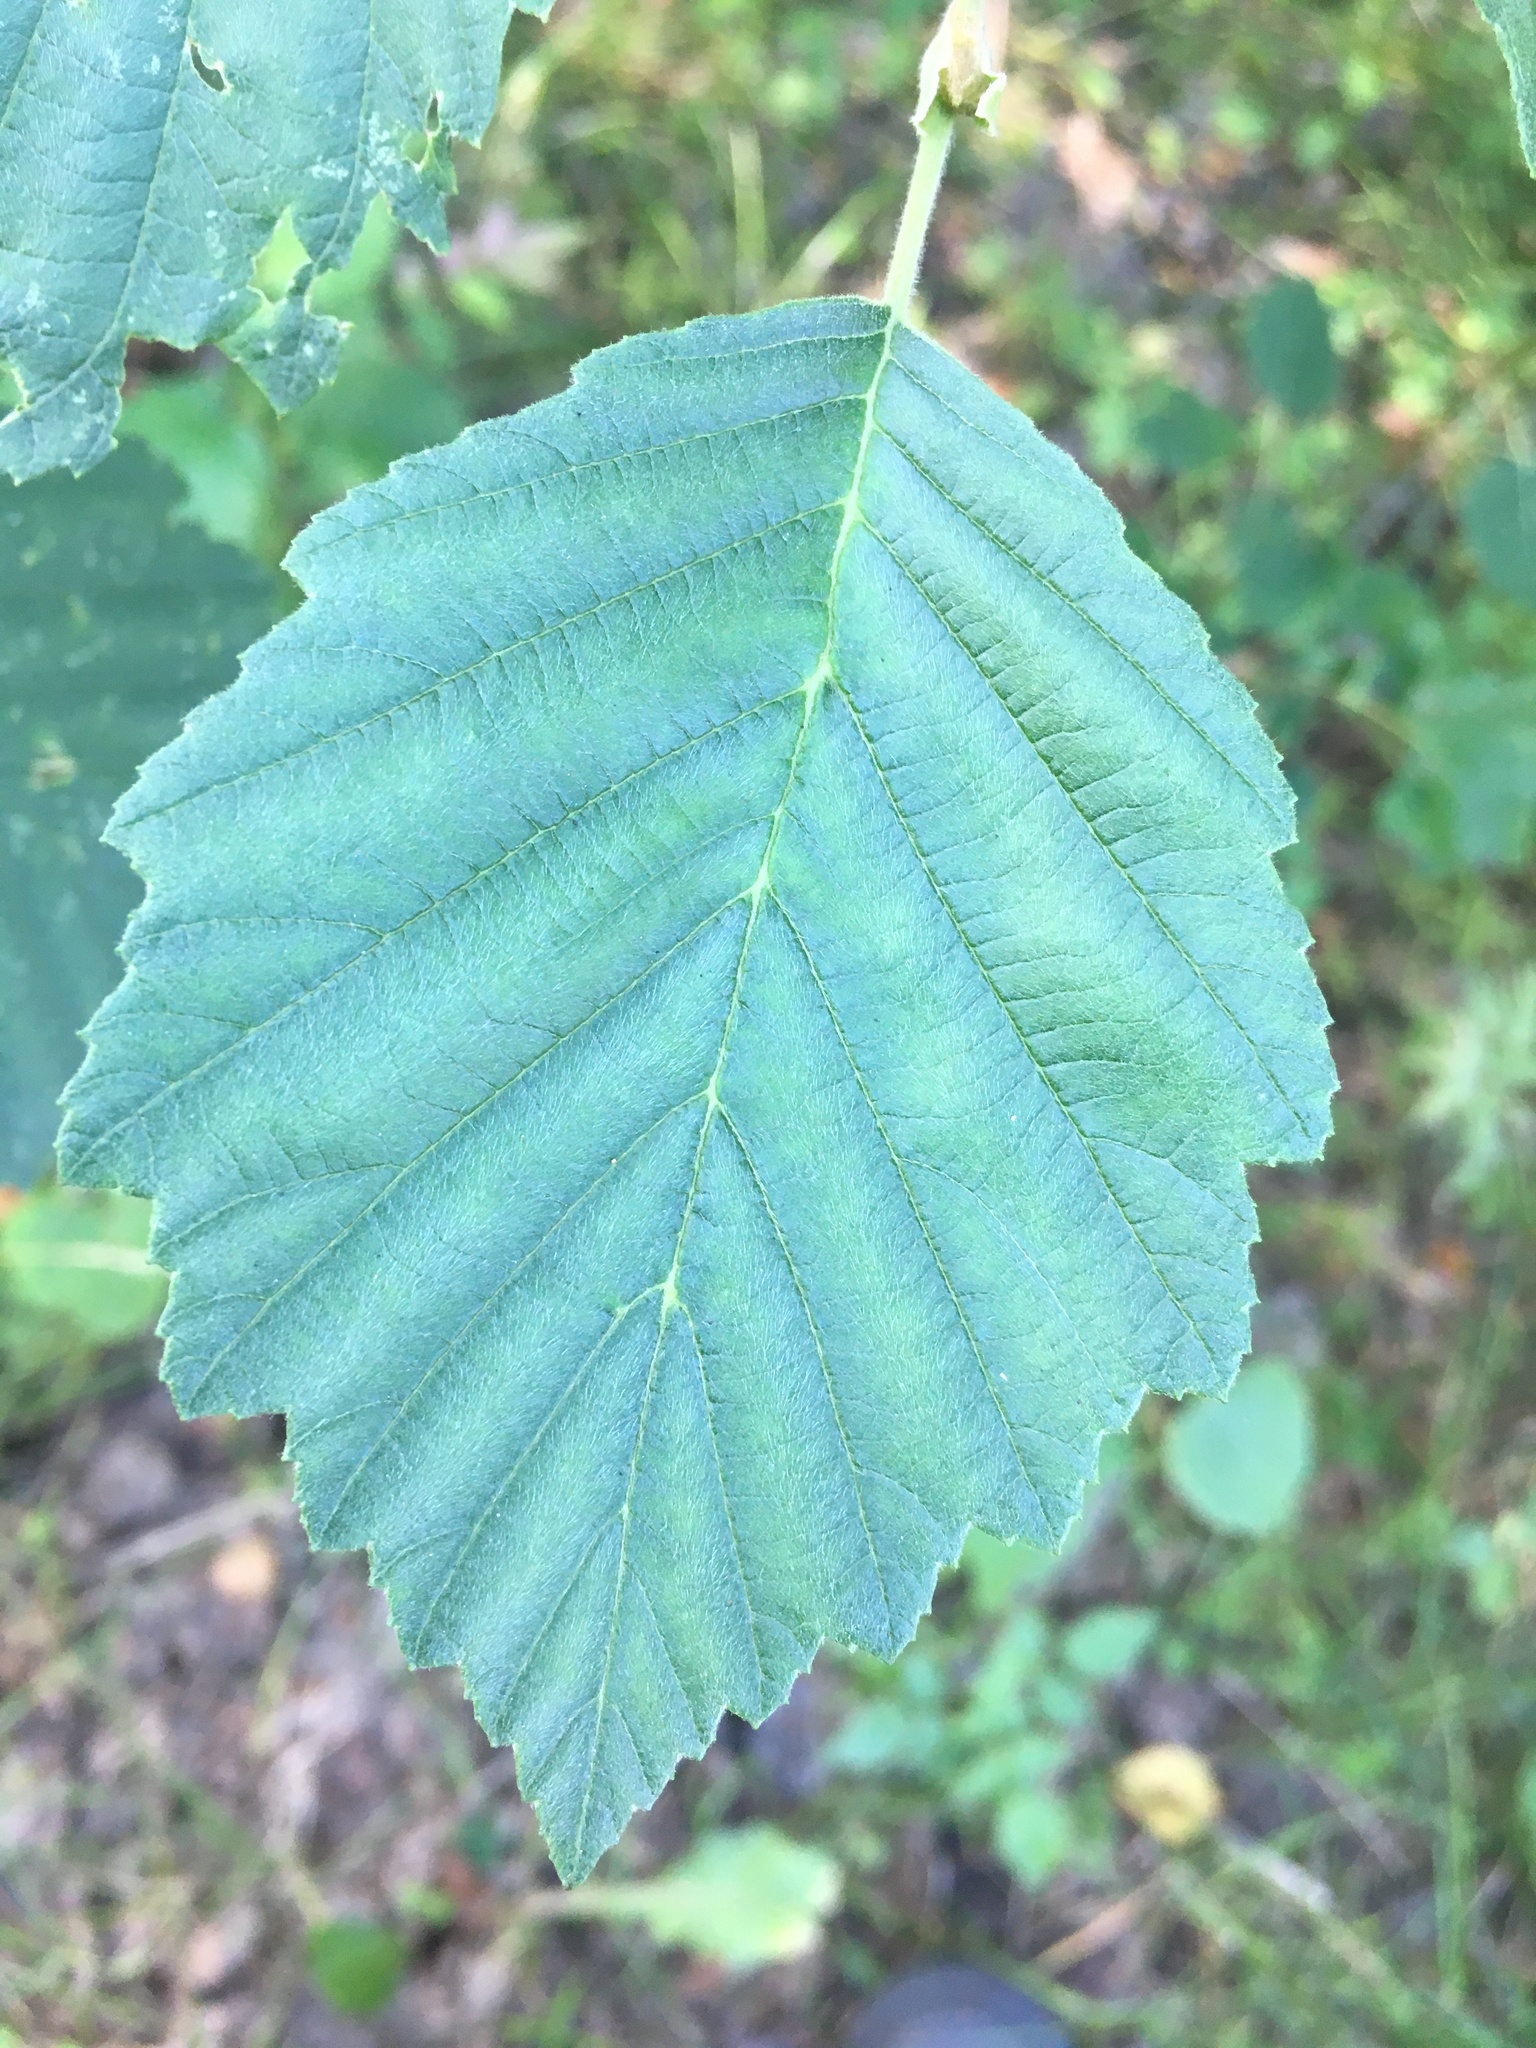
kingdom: Plantae
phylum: Tracheophyta
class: Magnoliopsida
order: Fagales
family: Betulaceae
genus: Alnus
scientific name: Alnus incana
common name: Grey alder
